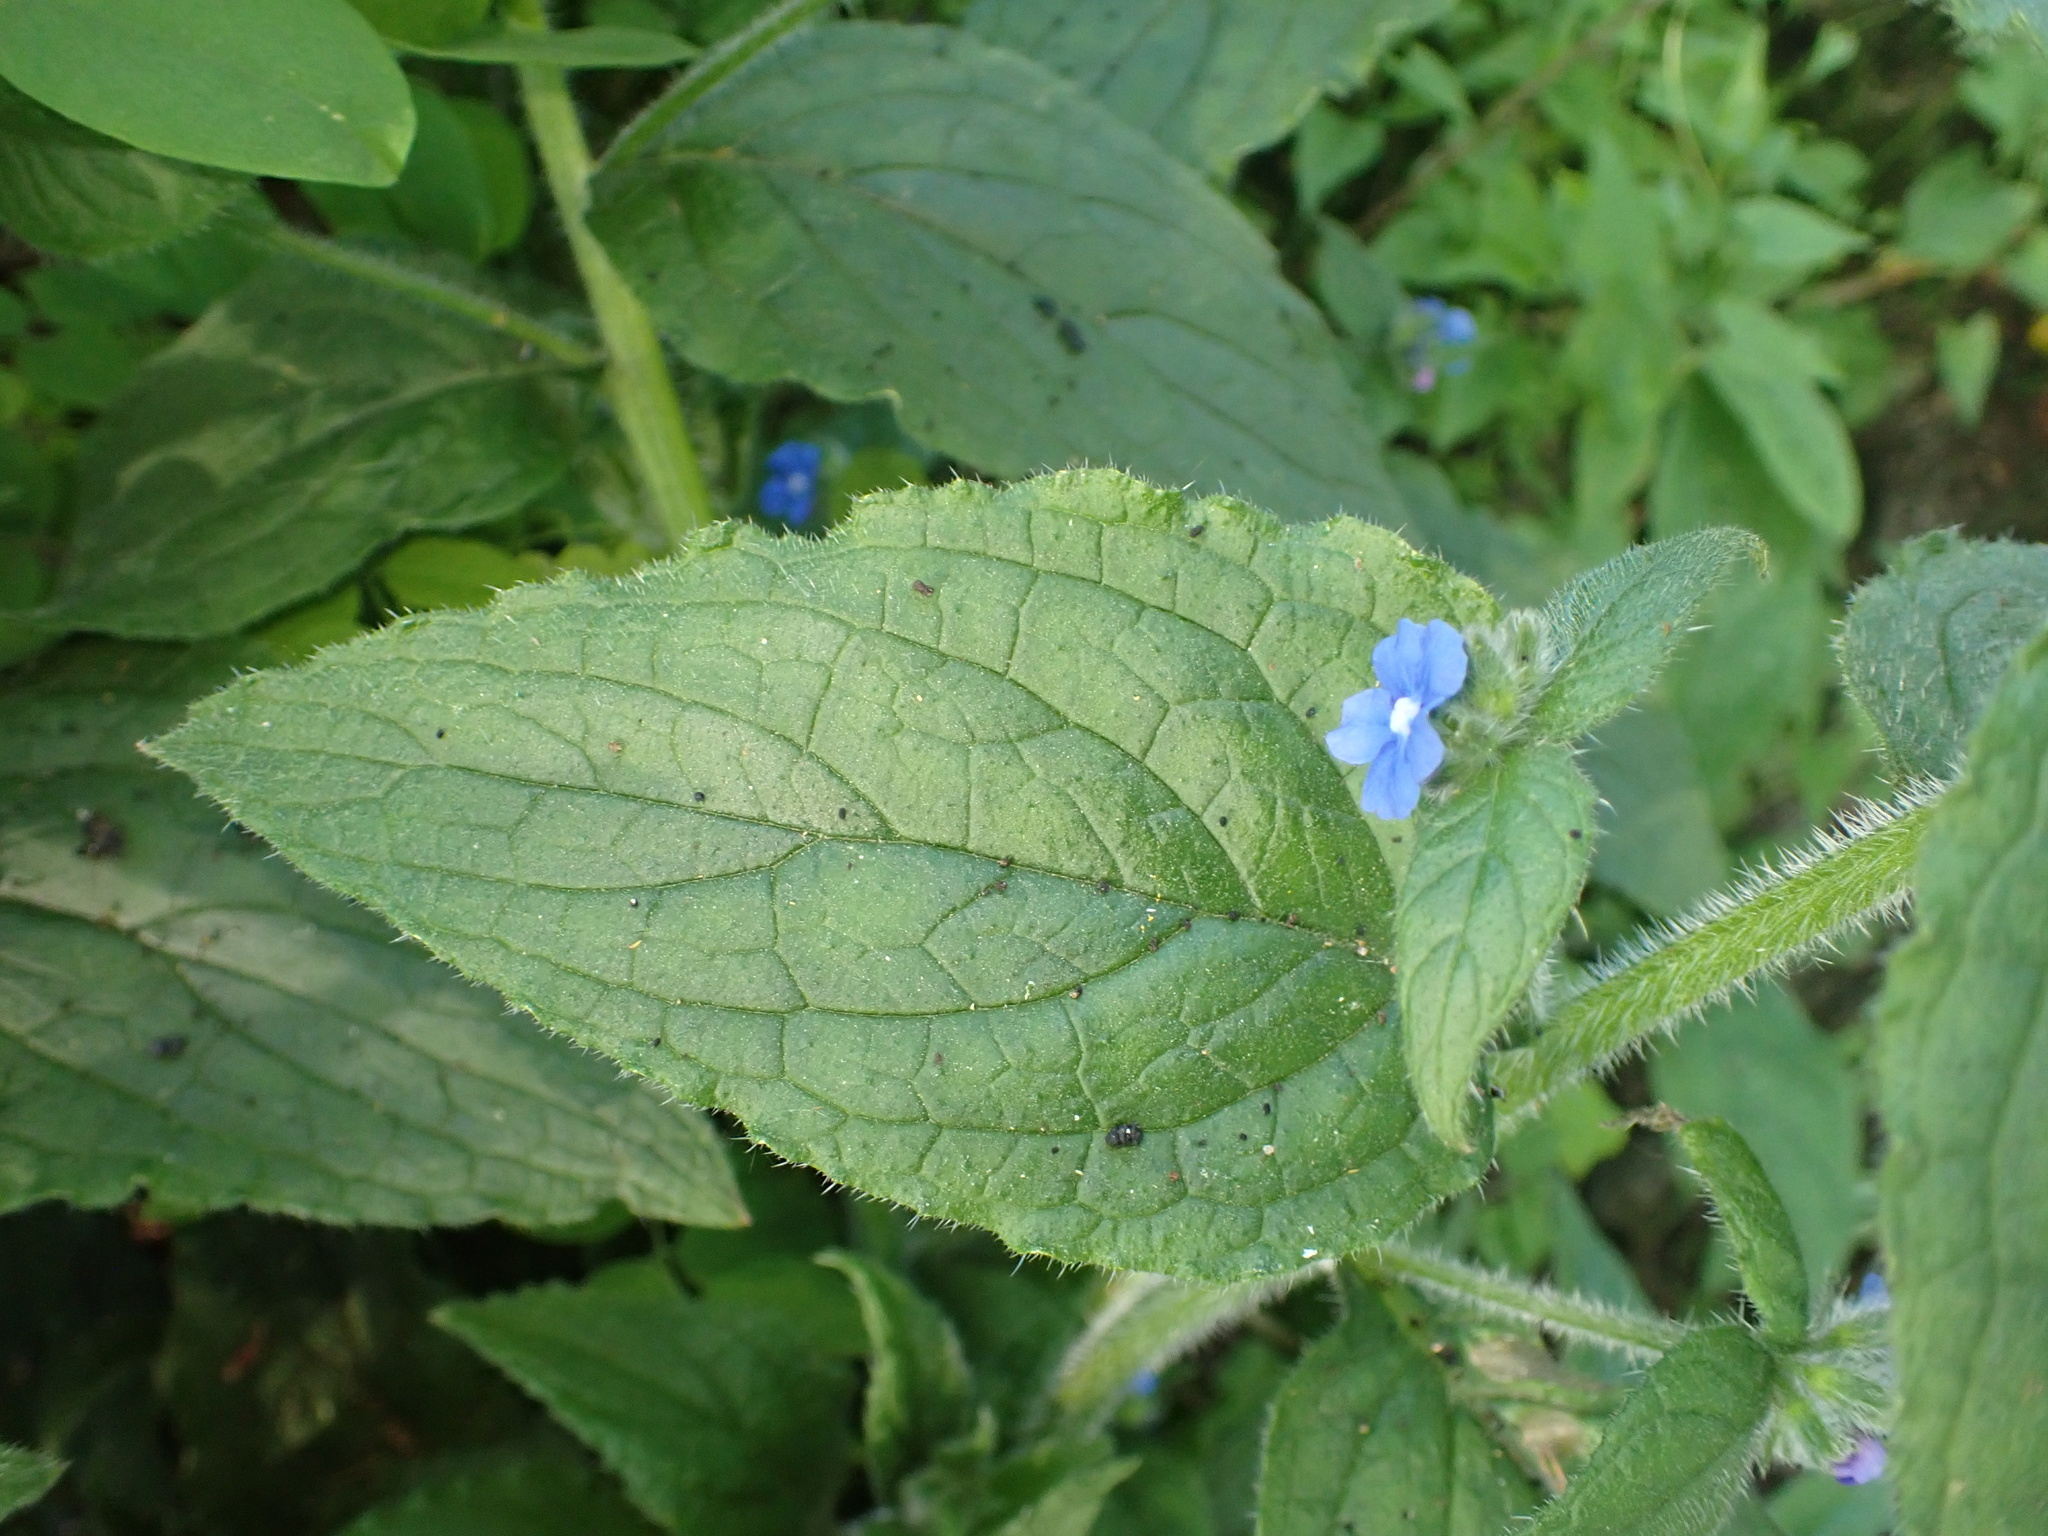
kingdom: Plantae
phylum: Tracheophyta
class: Magnoliopsida
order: Boraginales
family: Boraginaceae
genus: Pentaglottis
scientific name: Pentaglottis sempervirens
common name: Green alkanet
